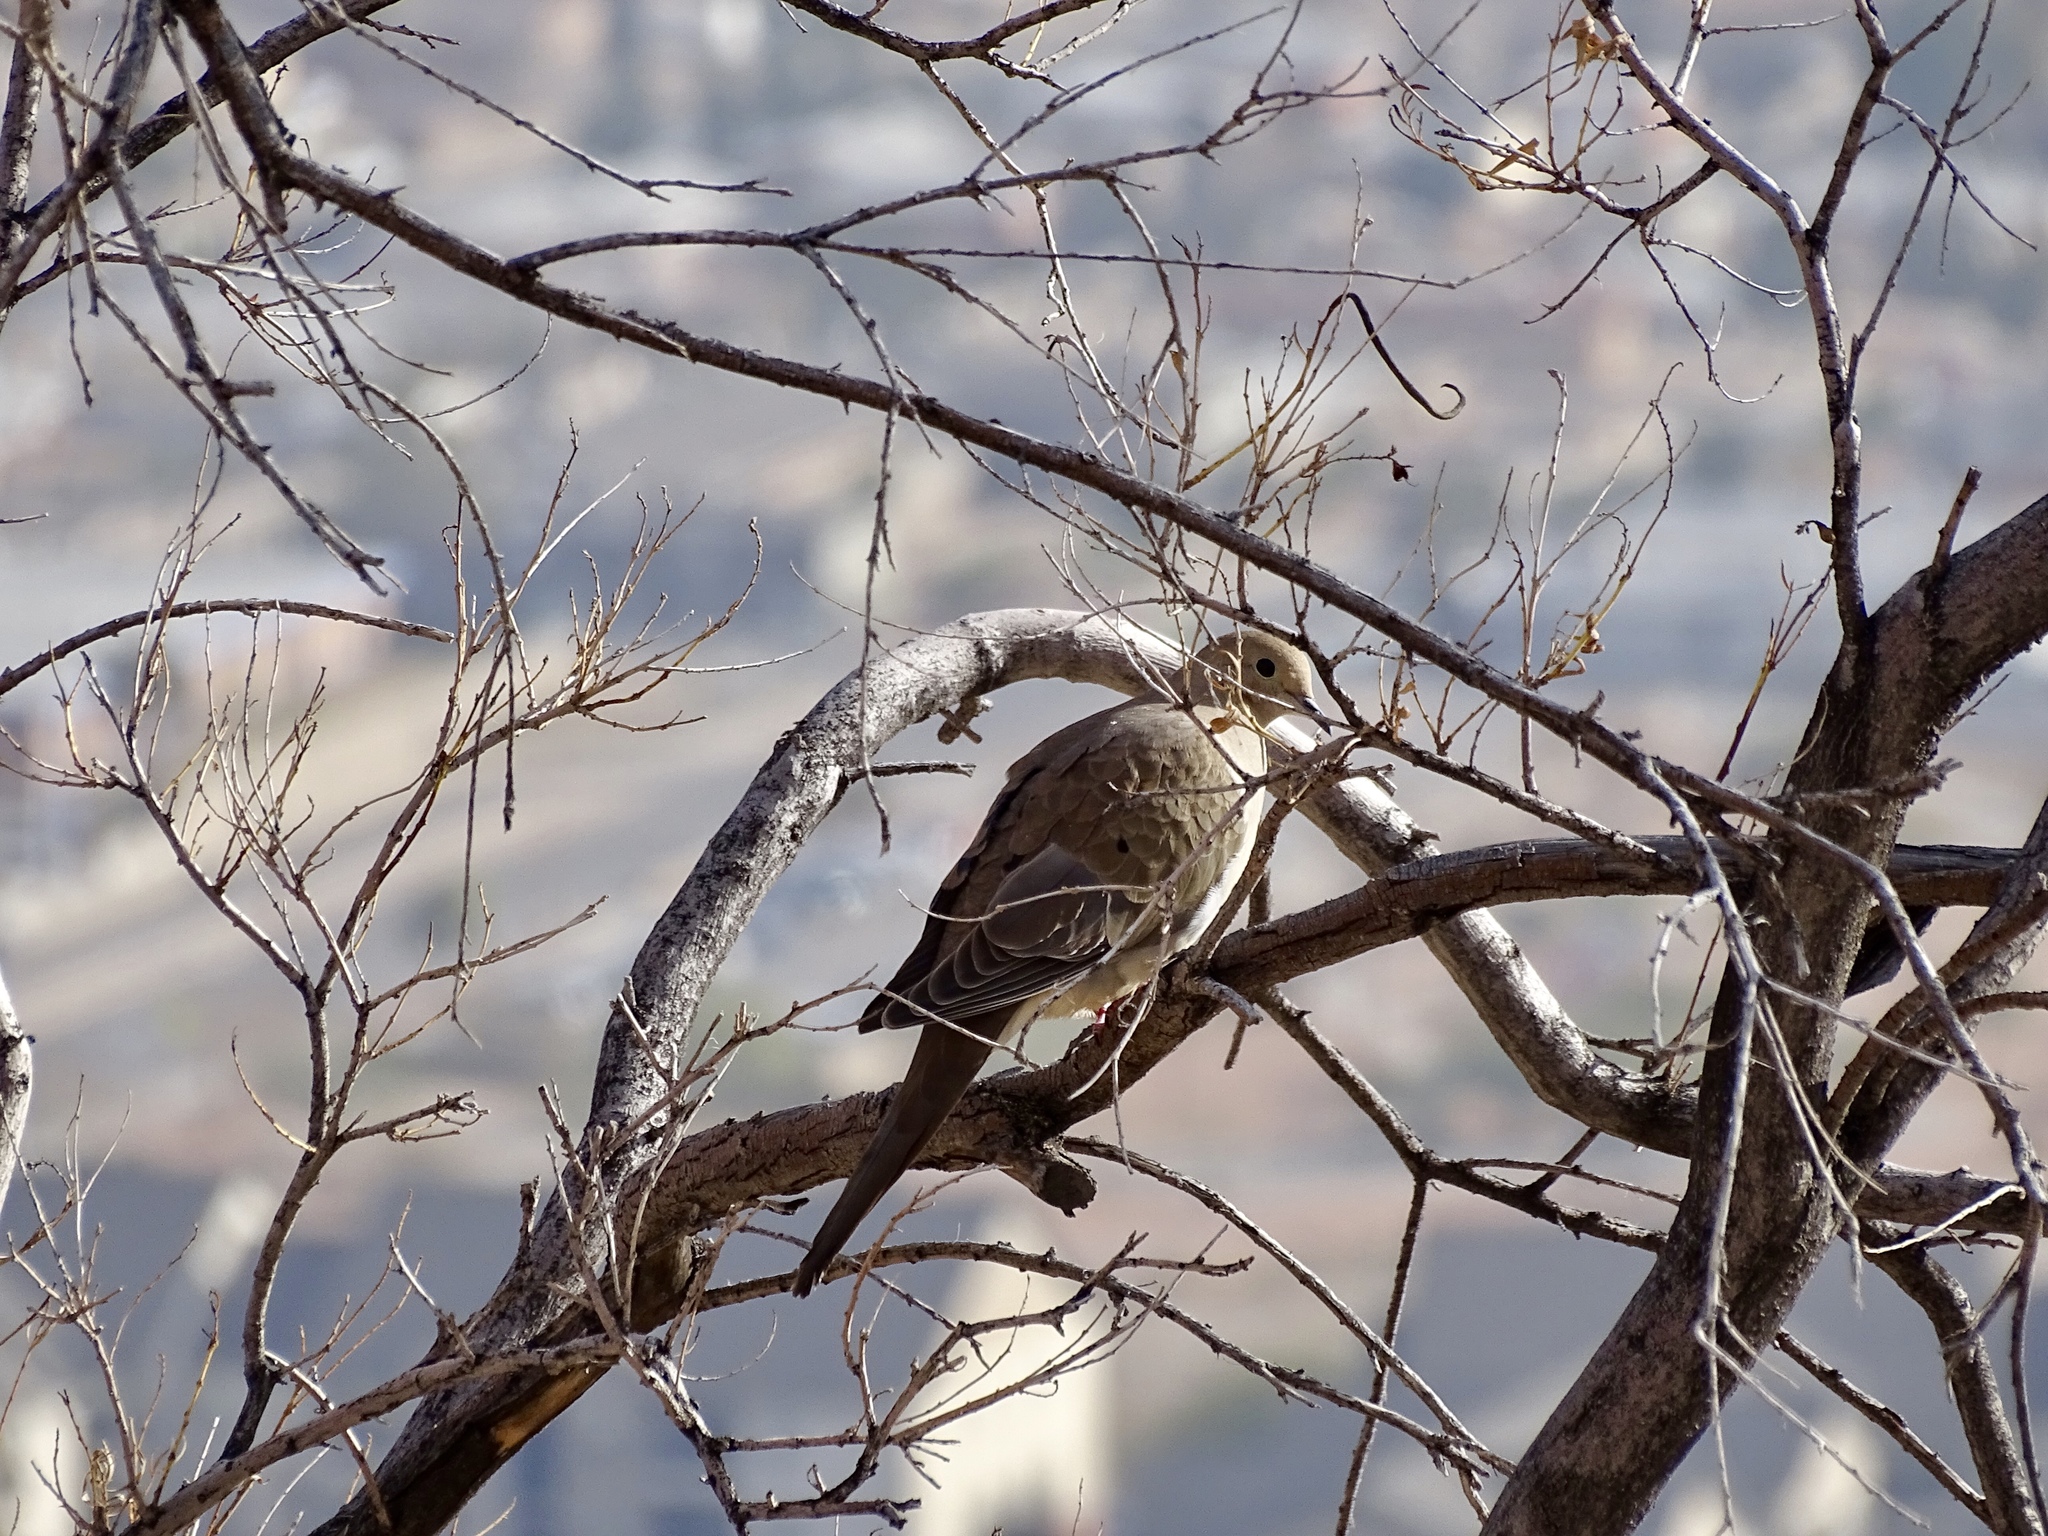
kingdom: Animalia
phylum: Chordata
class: Aves
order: Columbiformes
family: Columbidae
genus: Zenaida
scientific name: Zenaida macroura
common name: Mourning dove
